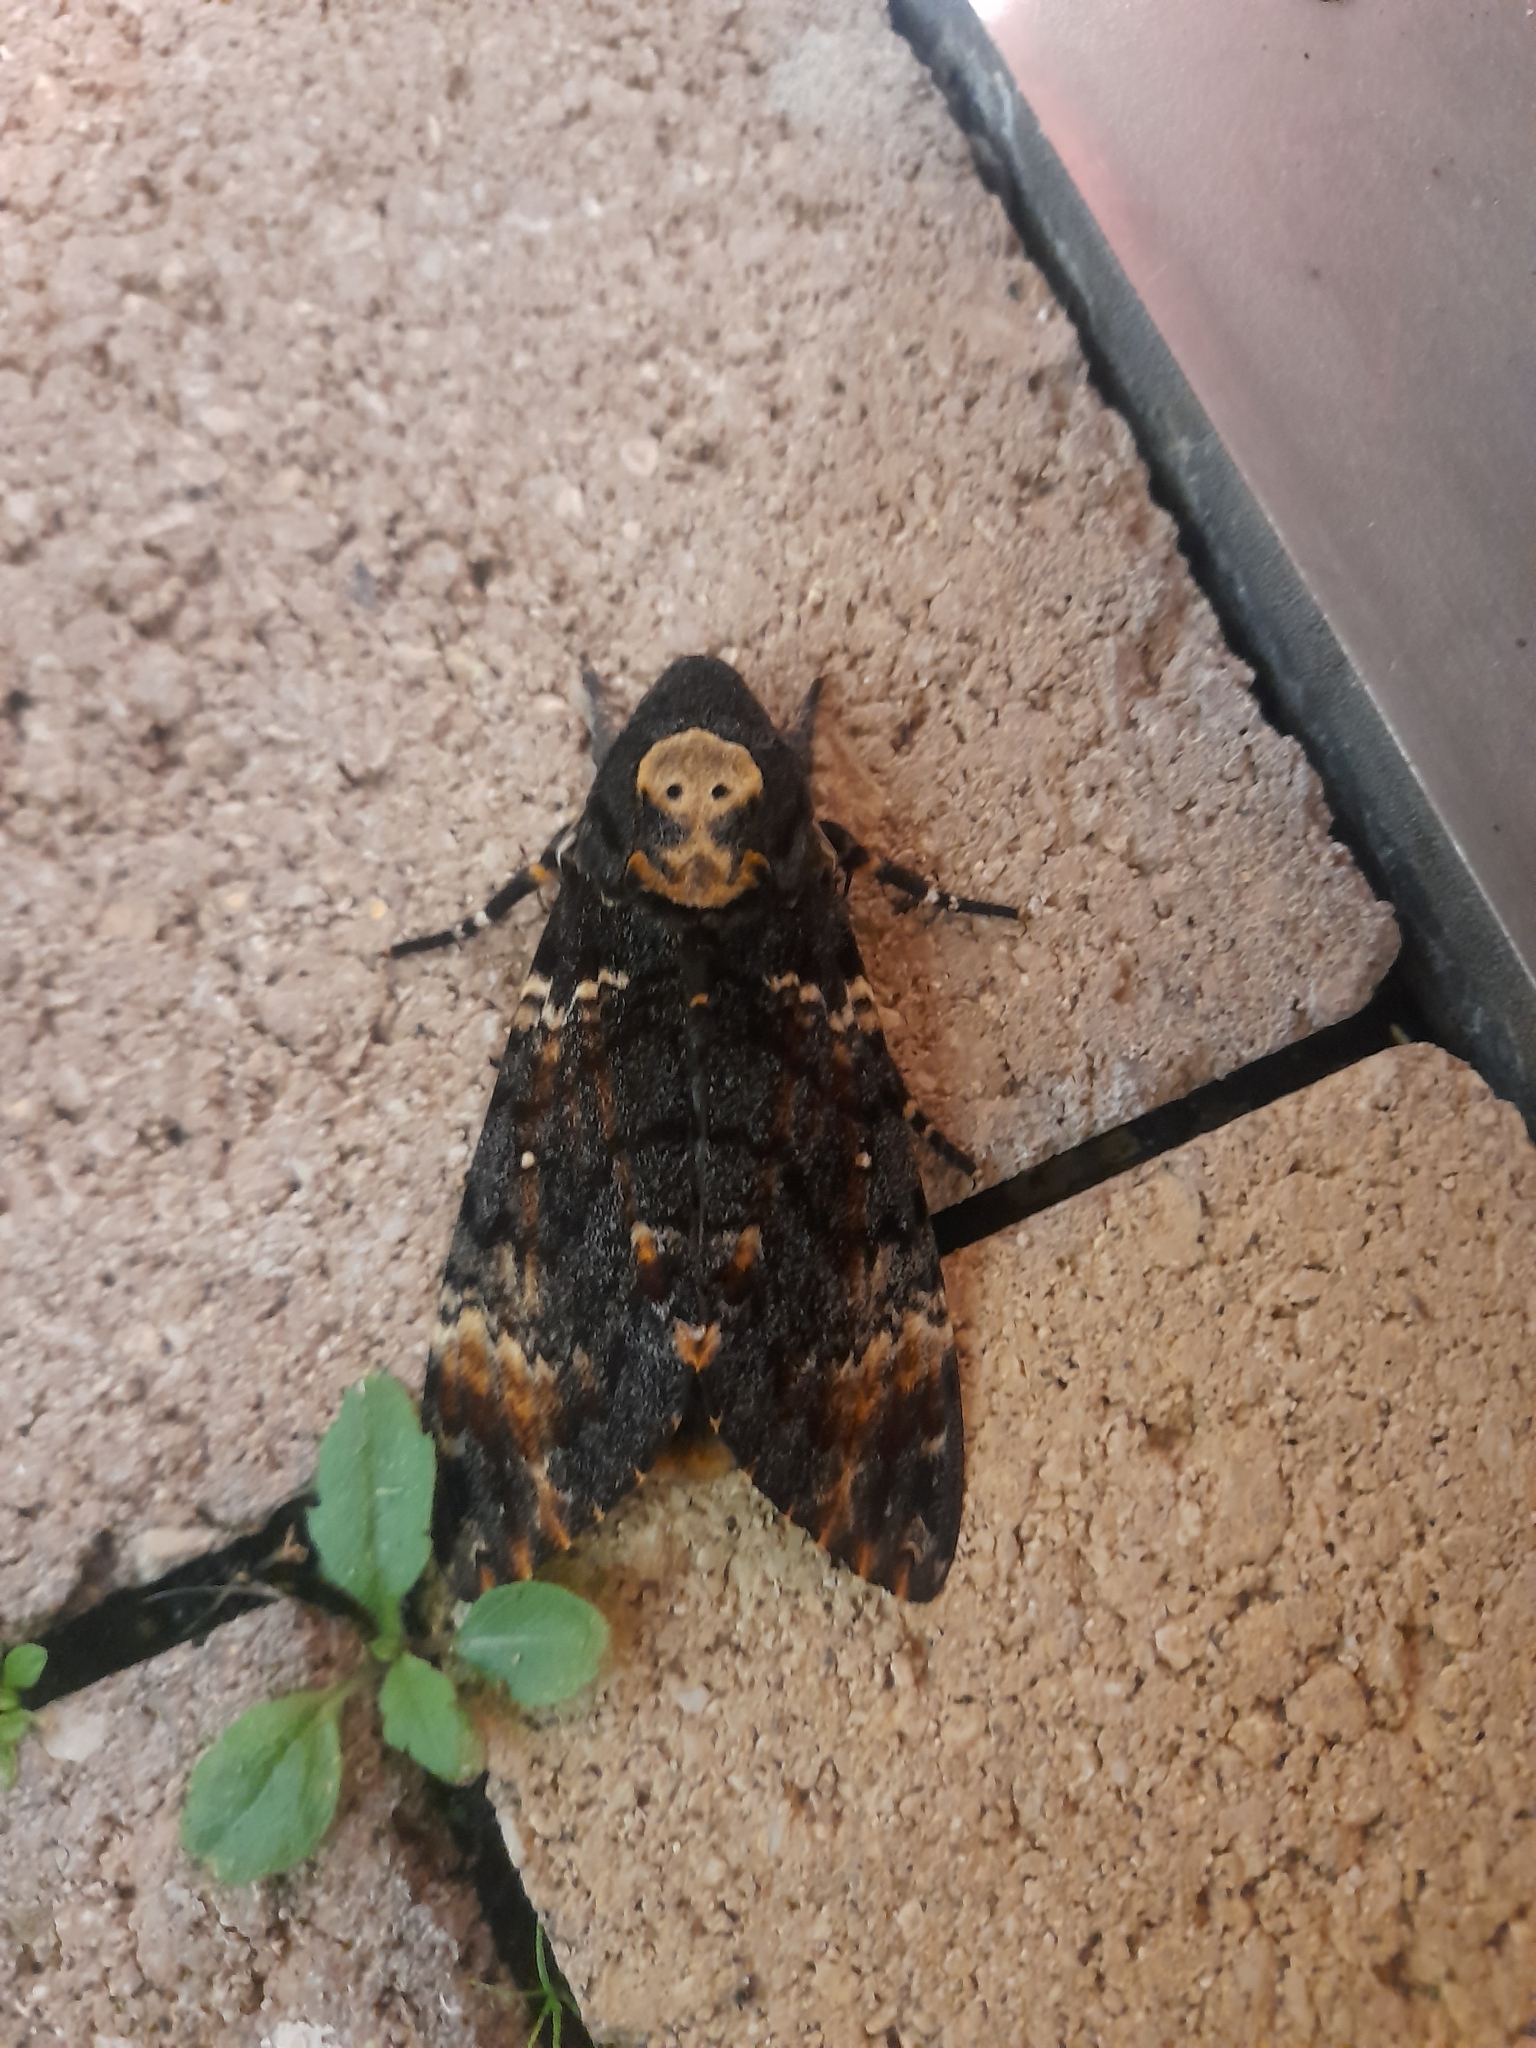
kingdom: Animalia
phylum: Arthropoda
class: Insecta
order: Lepidoptera
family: Sphingidae
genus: Acherontia
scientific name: Acherontia atropos
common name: Death's-head hawk moth
